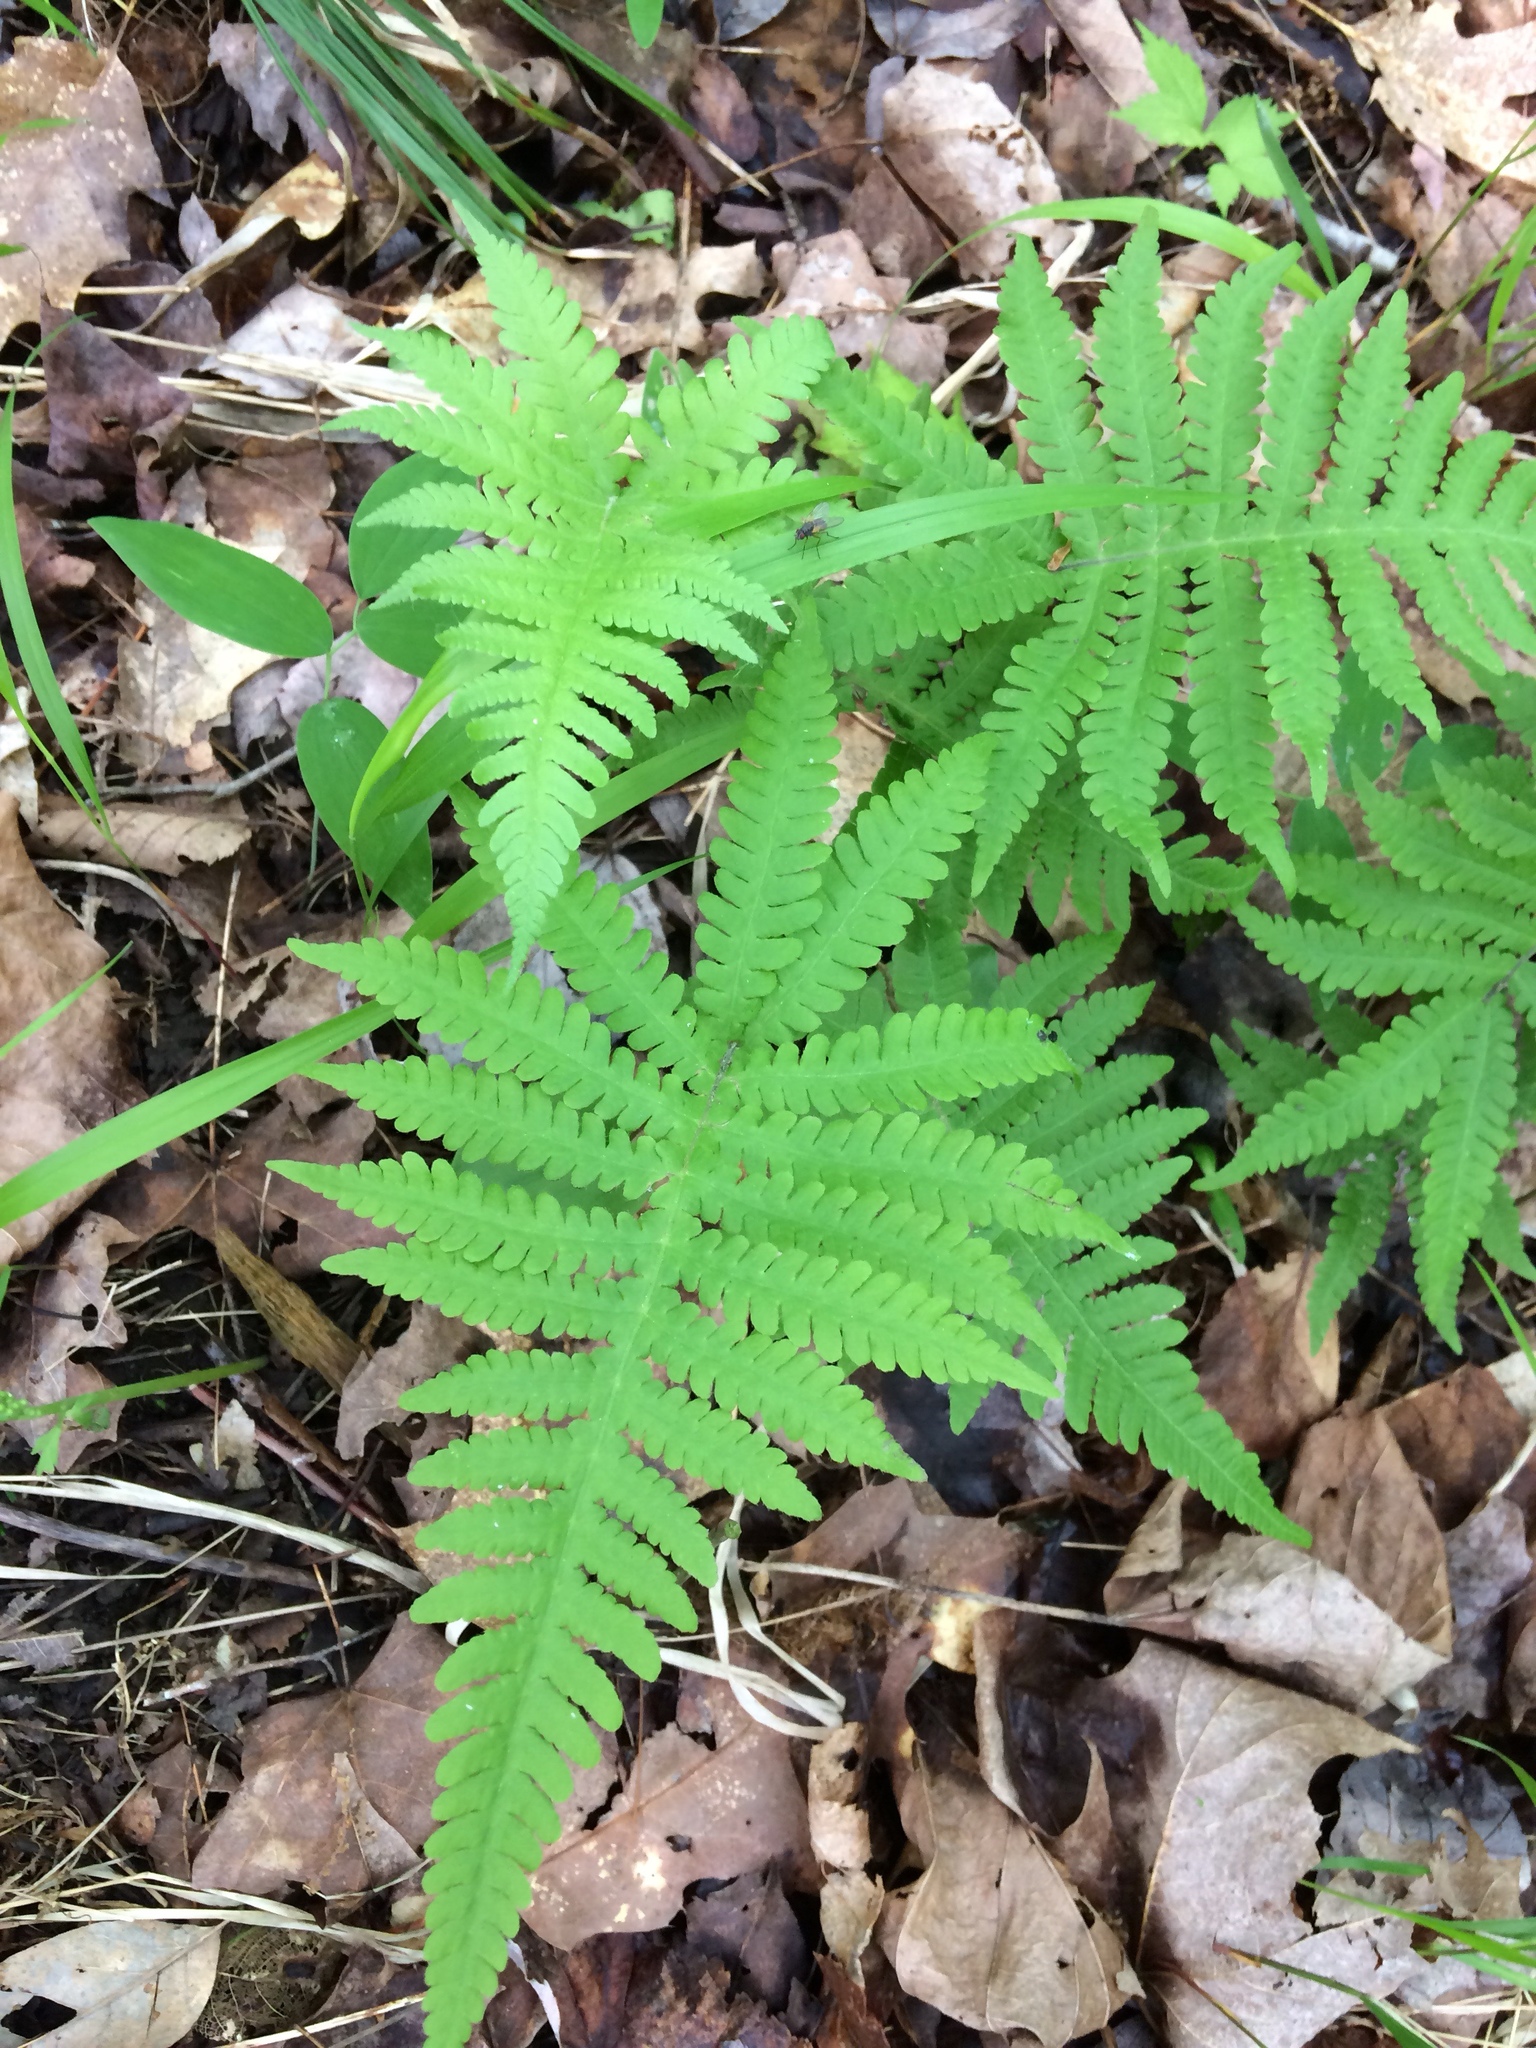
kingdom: Plantae
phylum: Tracheophyta
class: Polypodiopsida
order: Polypodiales
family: Thelypteridaceae
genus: Phegopteris
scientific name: Phegopteris connectilis
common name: Beech fern
